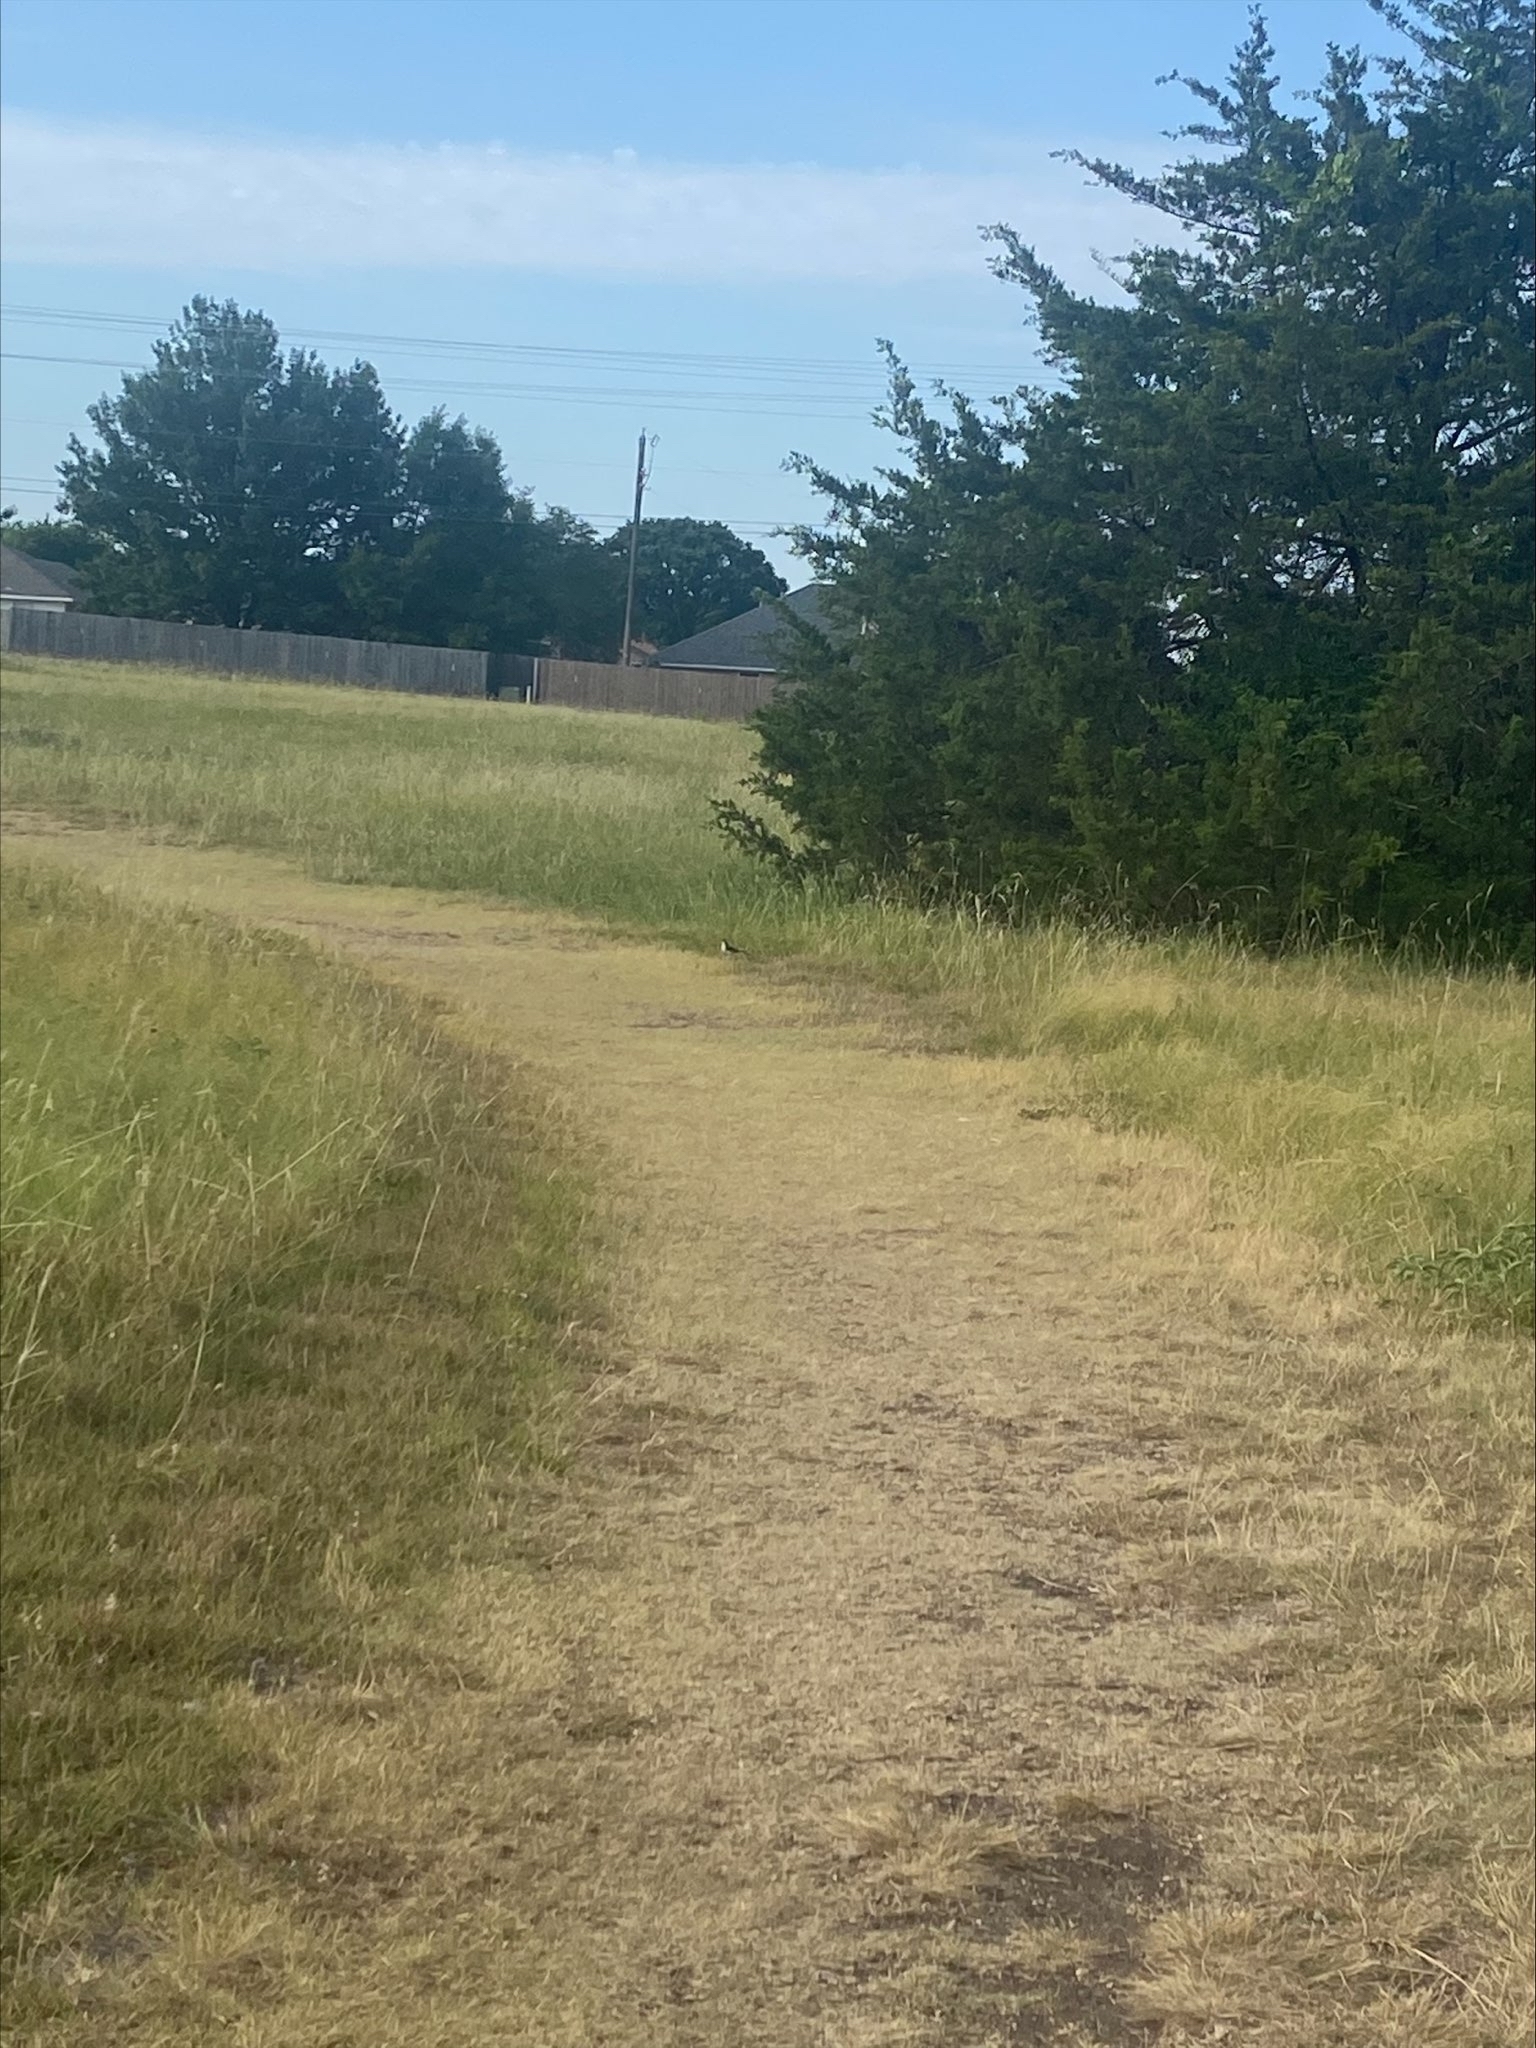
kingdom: Animalia
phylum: Chordata
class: Aves
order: Passeriformes
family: Mimidae
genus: Mimus
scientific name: Mimus polyglottos
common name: Northern mockingbird
